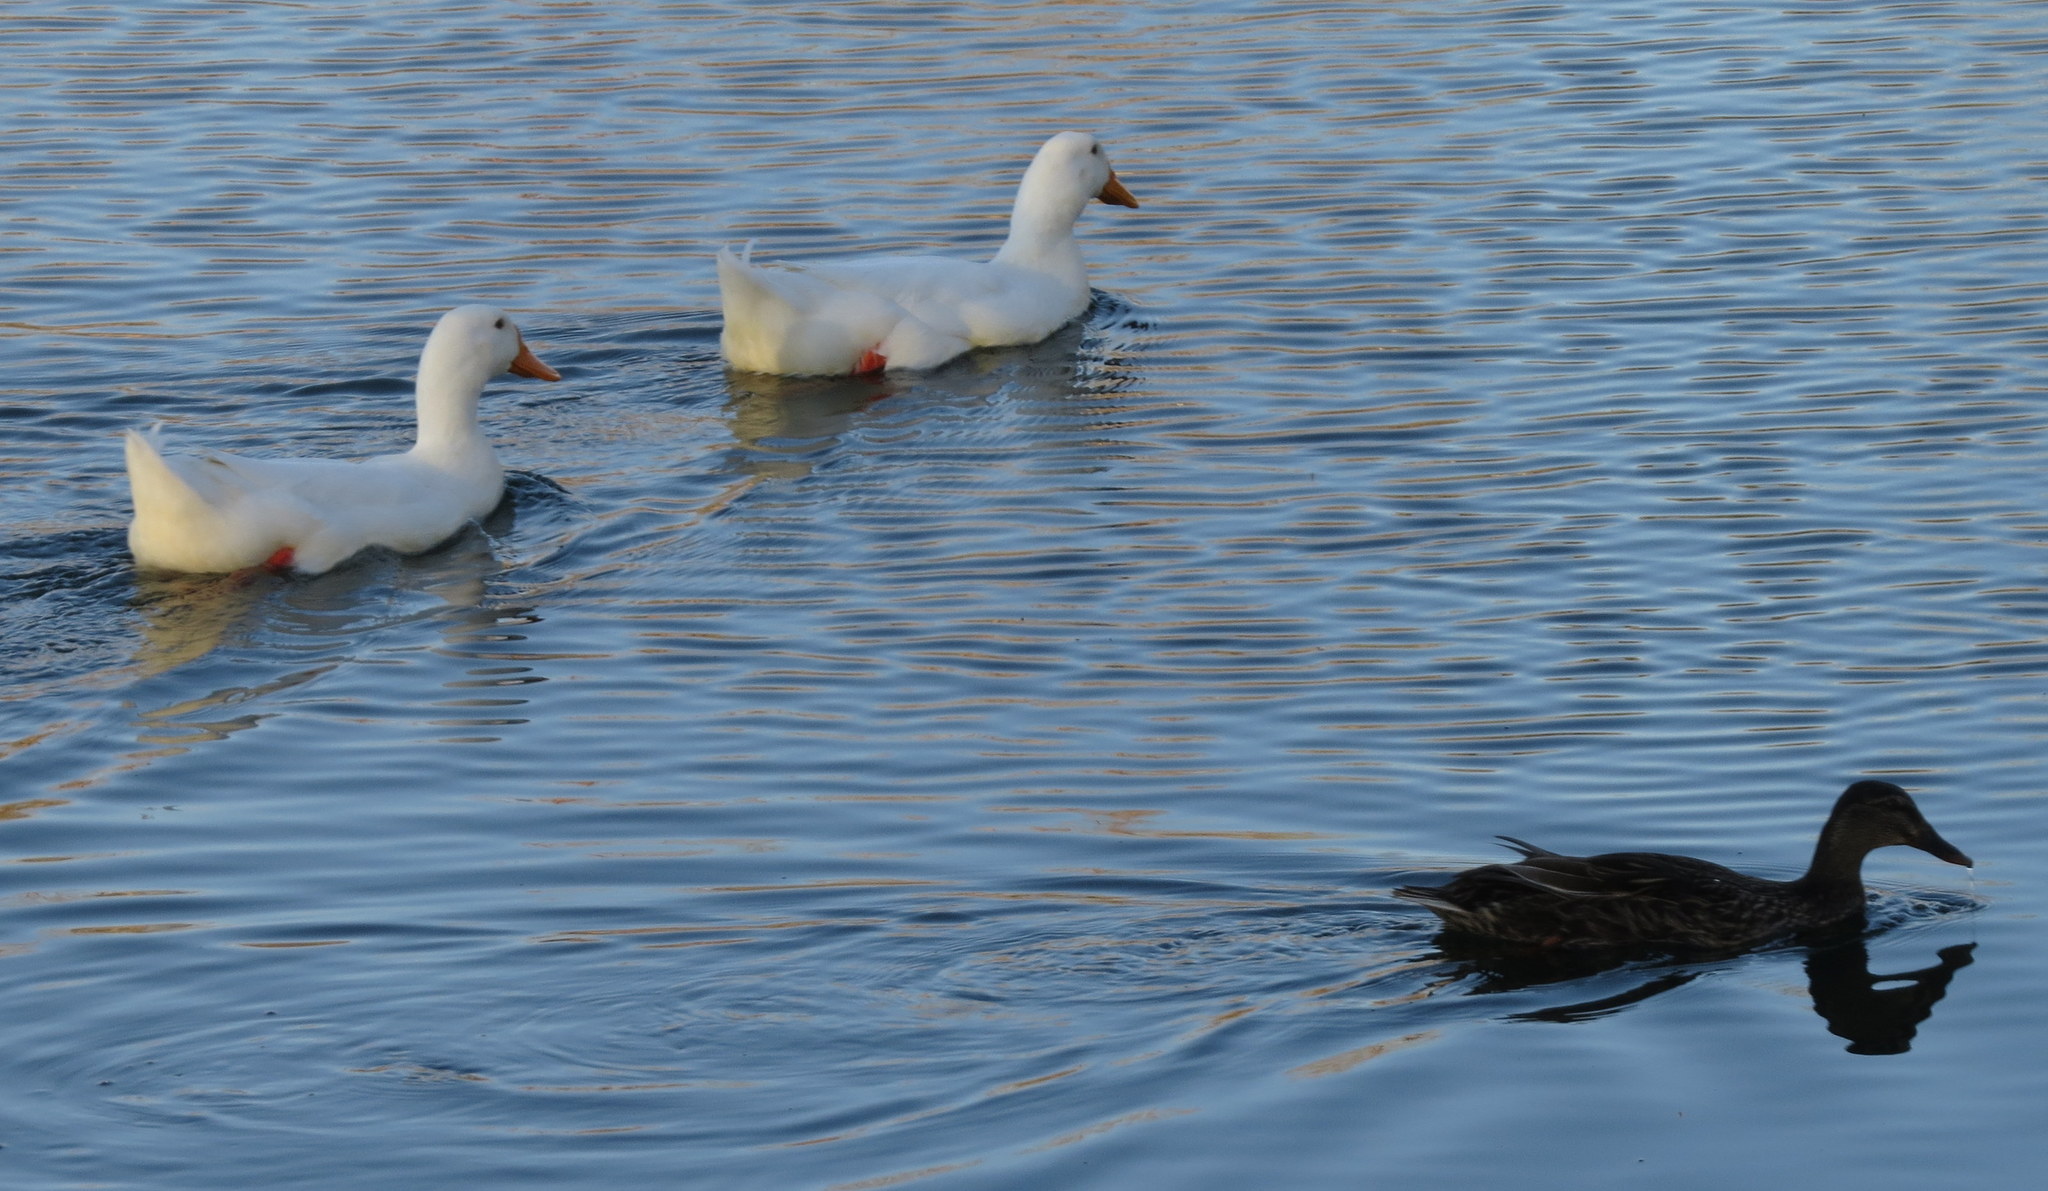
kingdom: Animalia
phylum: Chordata
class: Aves
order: Anseriformes
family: Anatidae
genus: Anas
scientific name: Anas platyrhynchos
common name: Mallard
